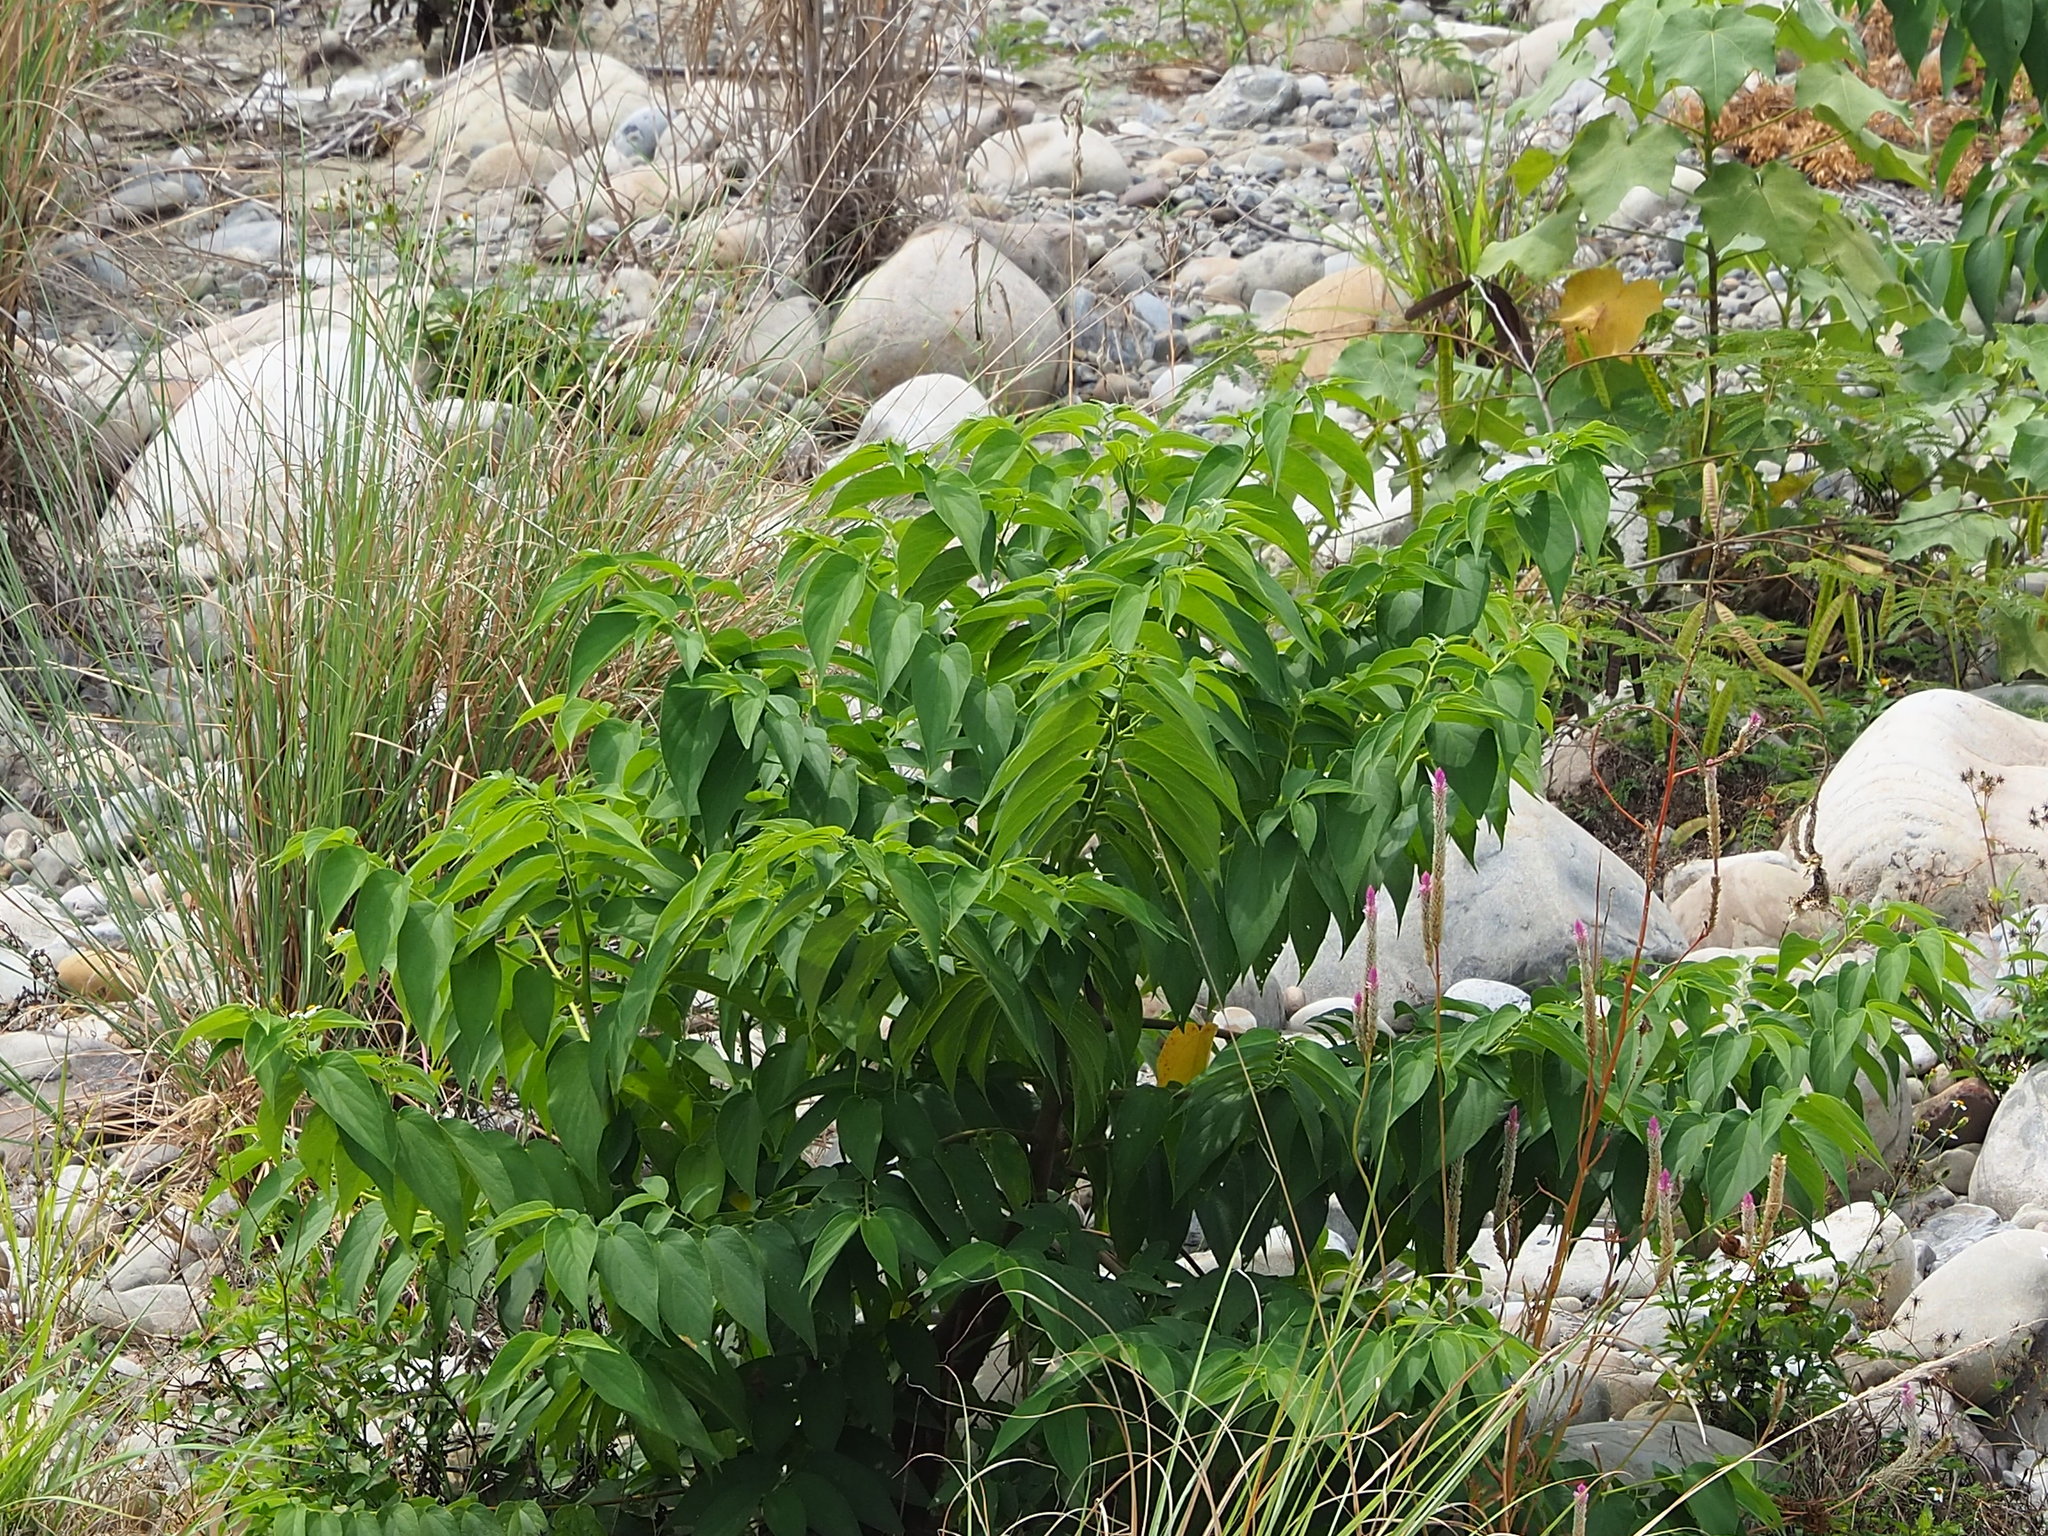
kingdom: Plantae
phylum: Tracheophyta
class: Magnoliopsida
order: Rosales
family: Cannabaceae
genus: Trema
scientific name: Trema orientale
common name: Indian charcoal tree
